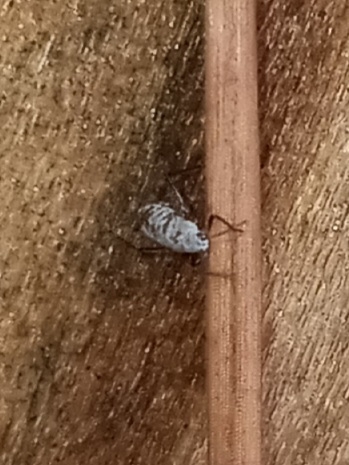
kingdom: Animalia
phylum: Arthropoda
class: Insecta
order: Hemiptera
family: Aphididae
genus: Eulachnus
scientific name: Eulachnus rileyi
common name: Active gray pine needle aphid
